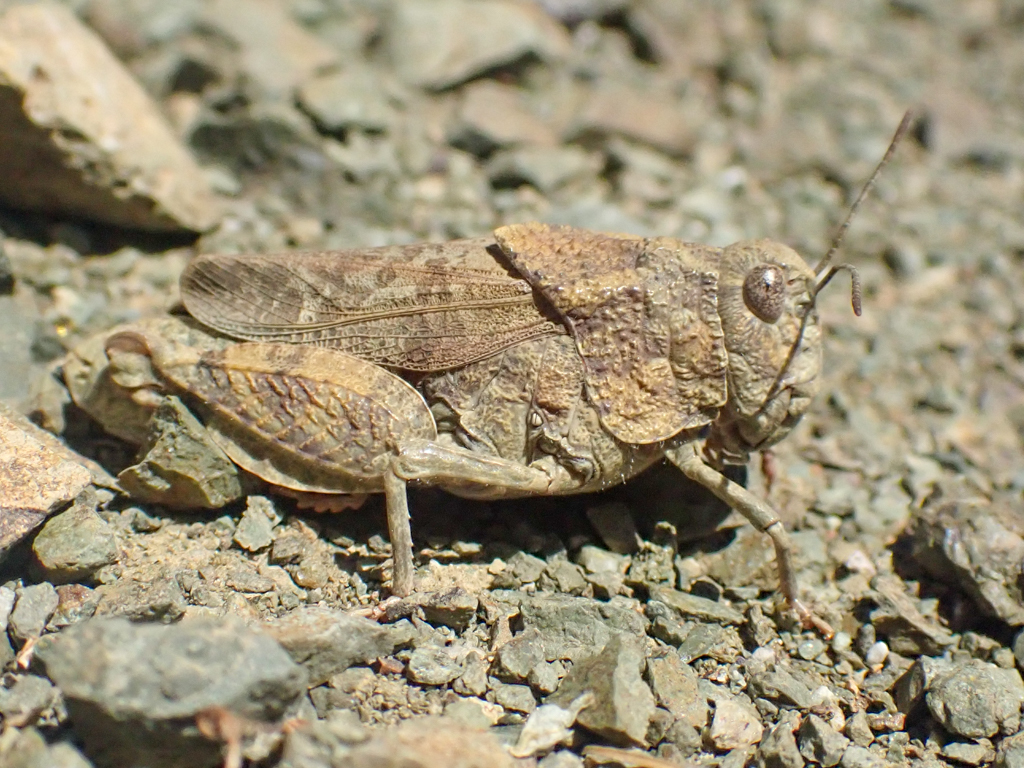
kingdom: Animalia
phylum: Arthropoda
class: Insecta
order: Orthoptera
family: Acrididae
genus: Agymnastus
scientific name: Agymnastus ingens
